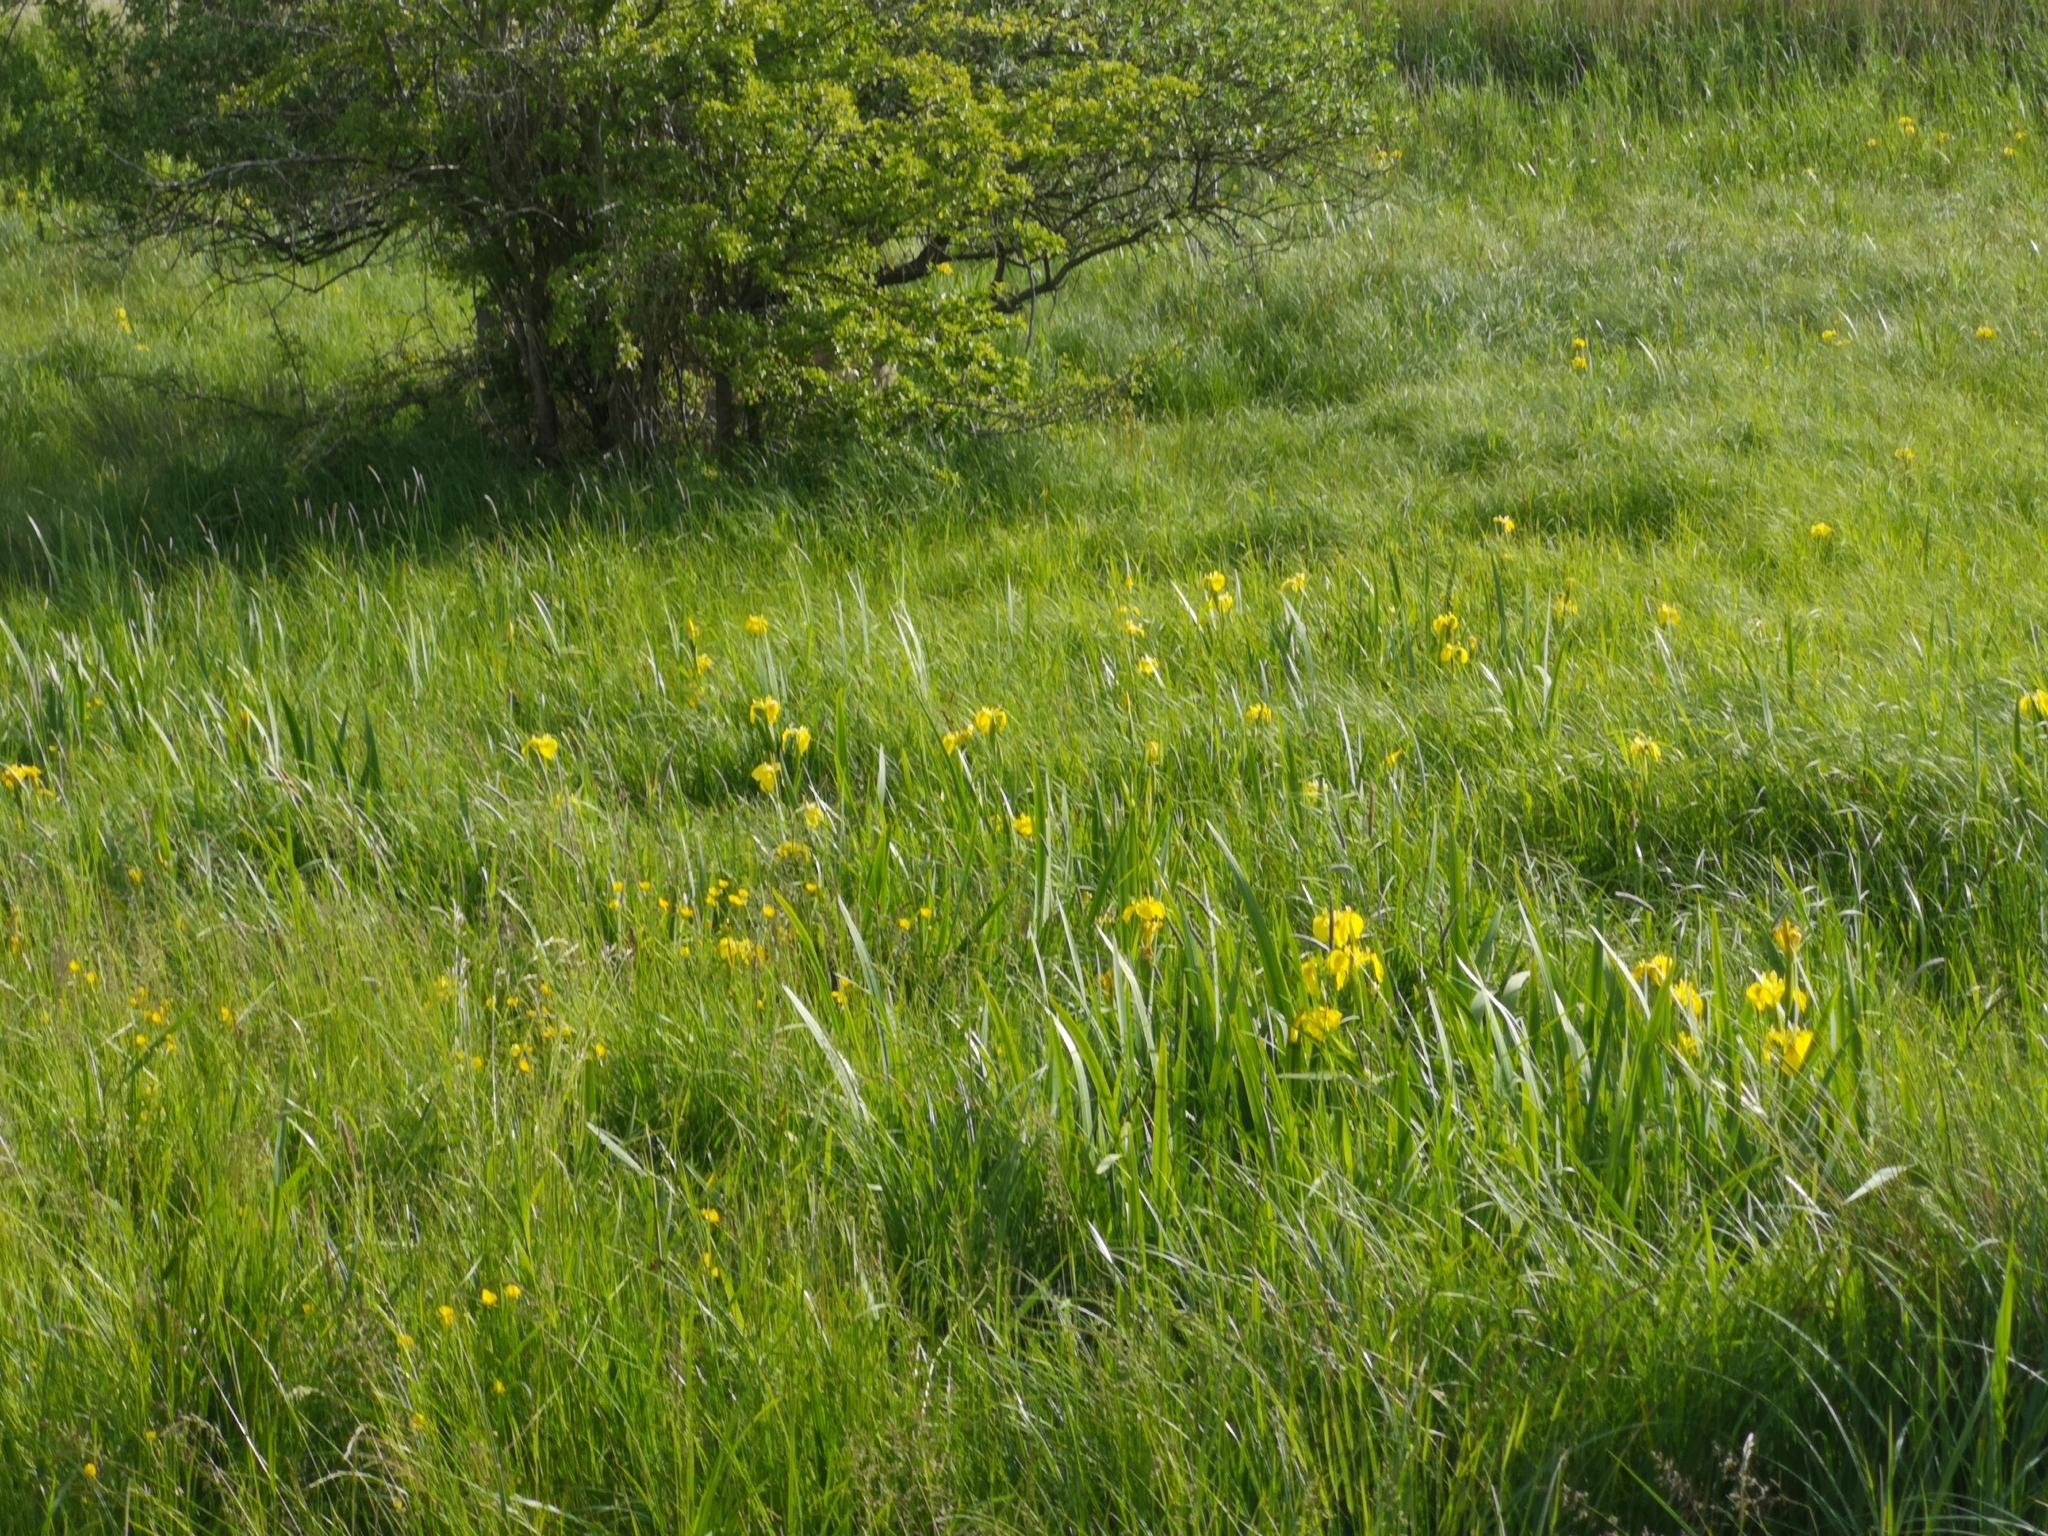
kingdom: Plantae
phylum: Tracheophyta
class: Liliopsida
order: Asparagales
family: Iridaceae
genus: Iris
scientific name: Iris pseudacorus
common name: Yellow flag
